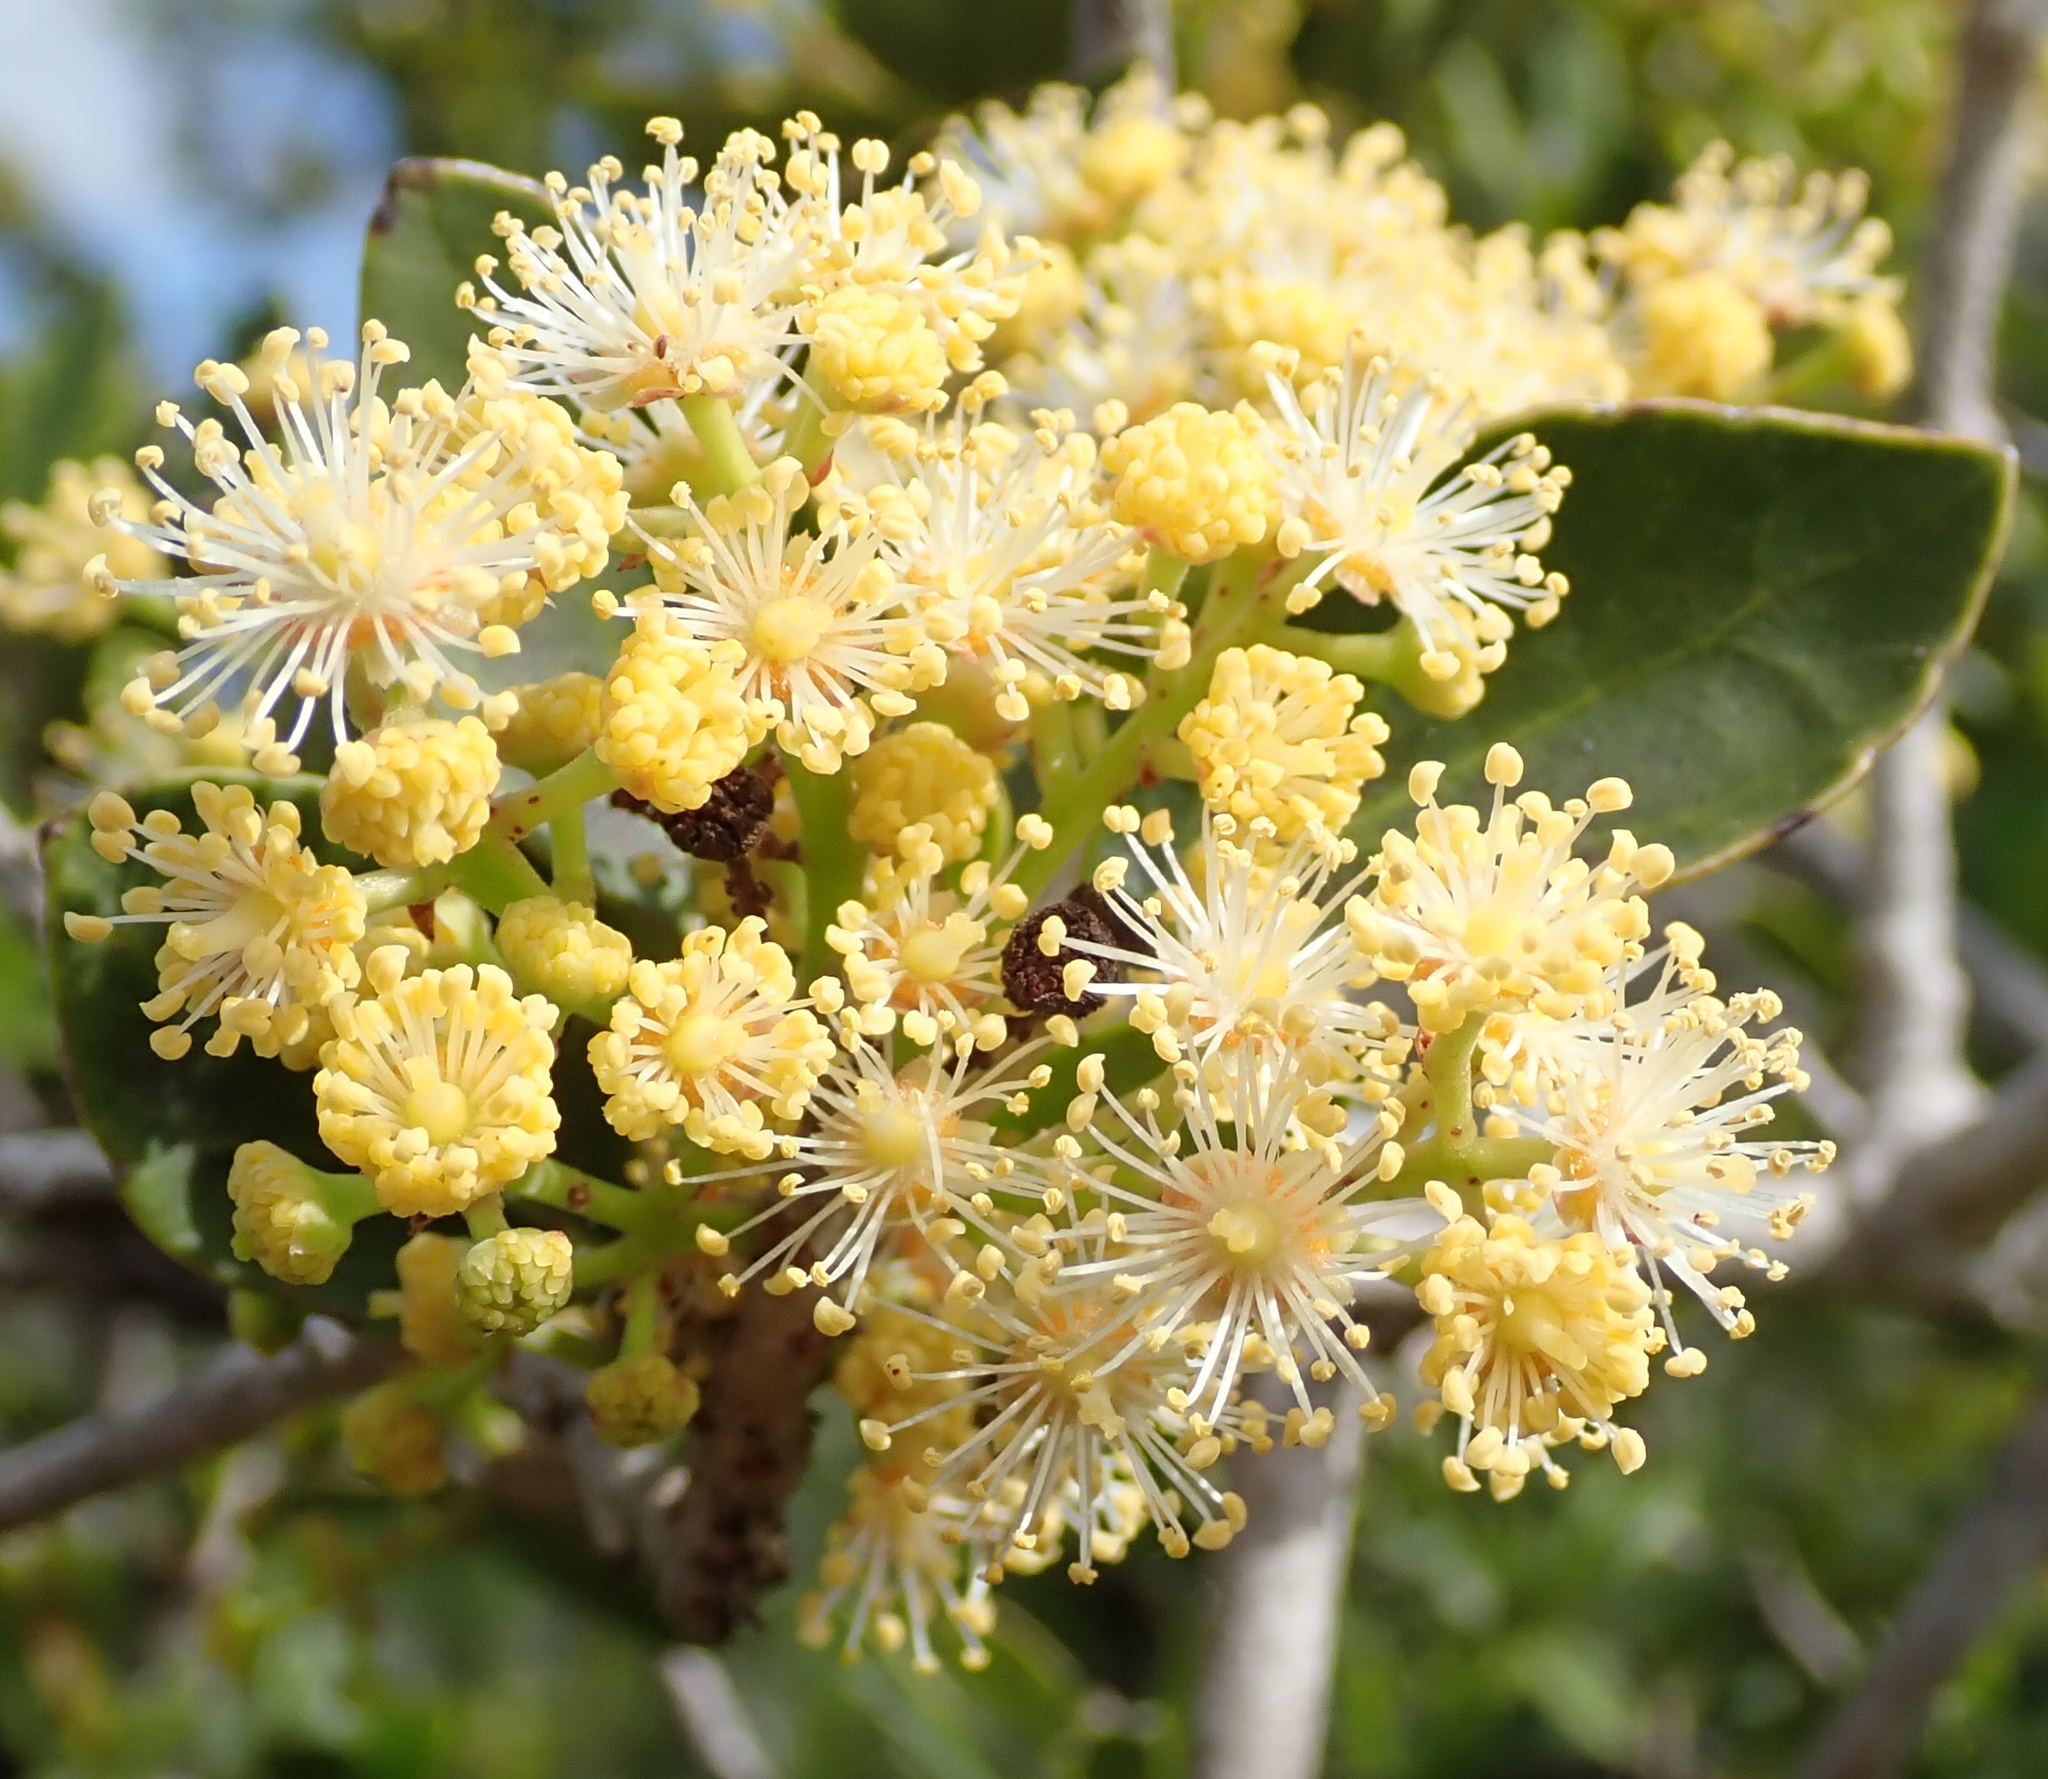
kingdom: Plantae
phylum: Tracheophyta
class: Magnoliopsida
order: Malpighiales
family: Salicaceae
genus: Scolopia
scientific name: Scolopia zeyheri
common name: Thorn pear
